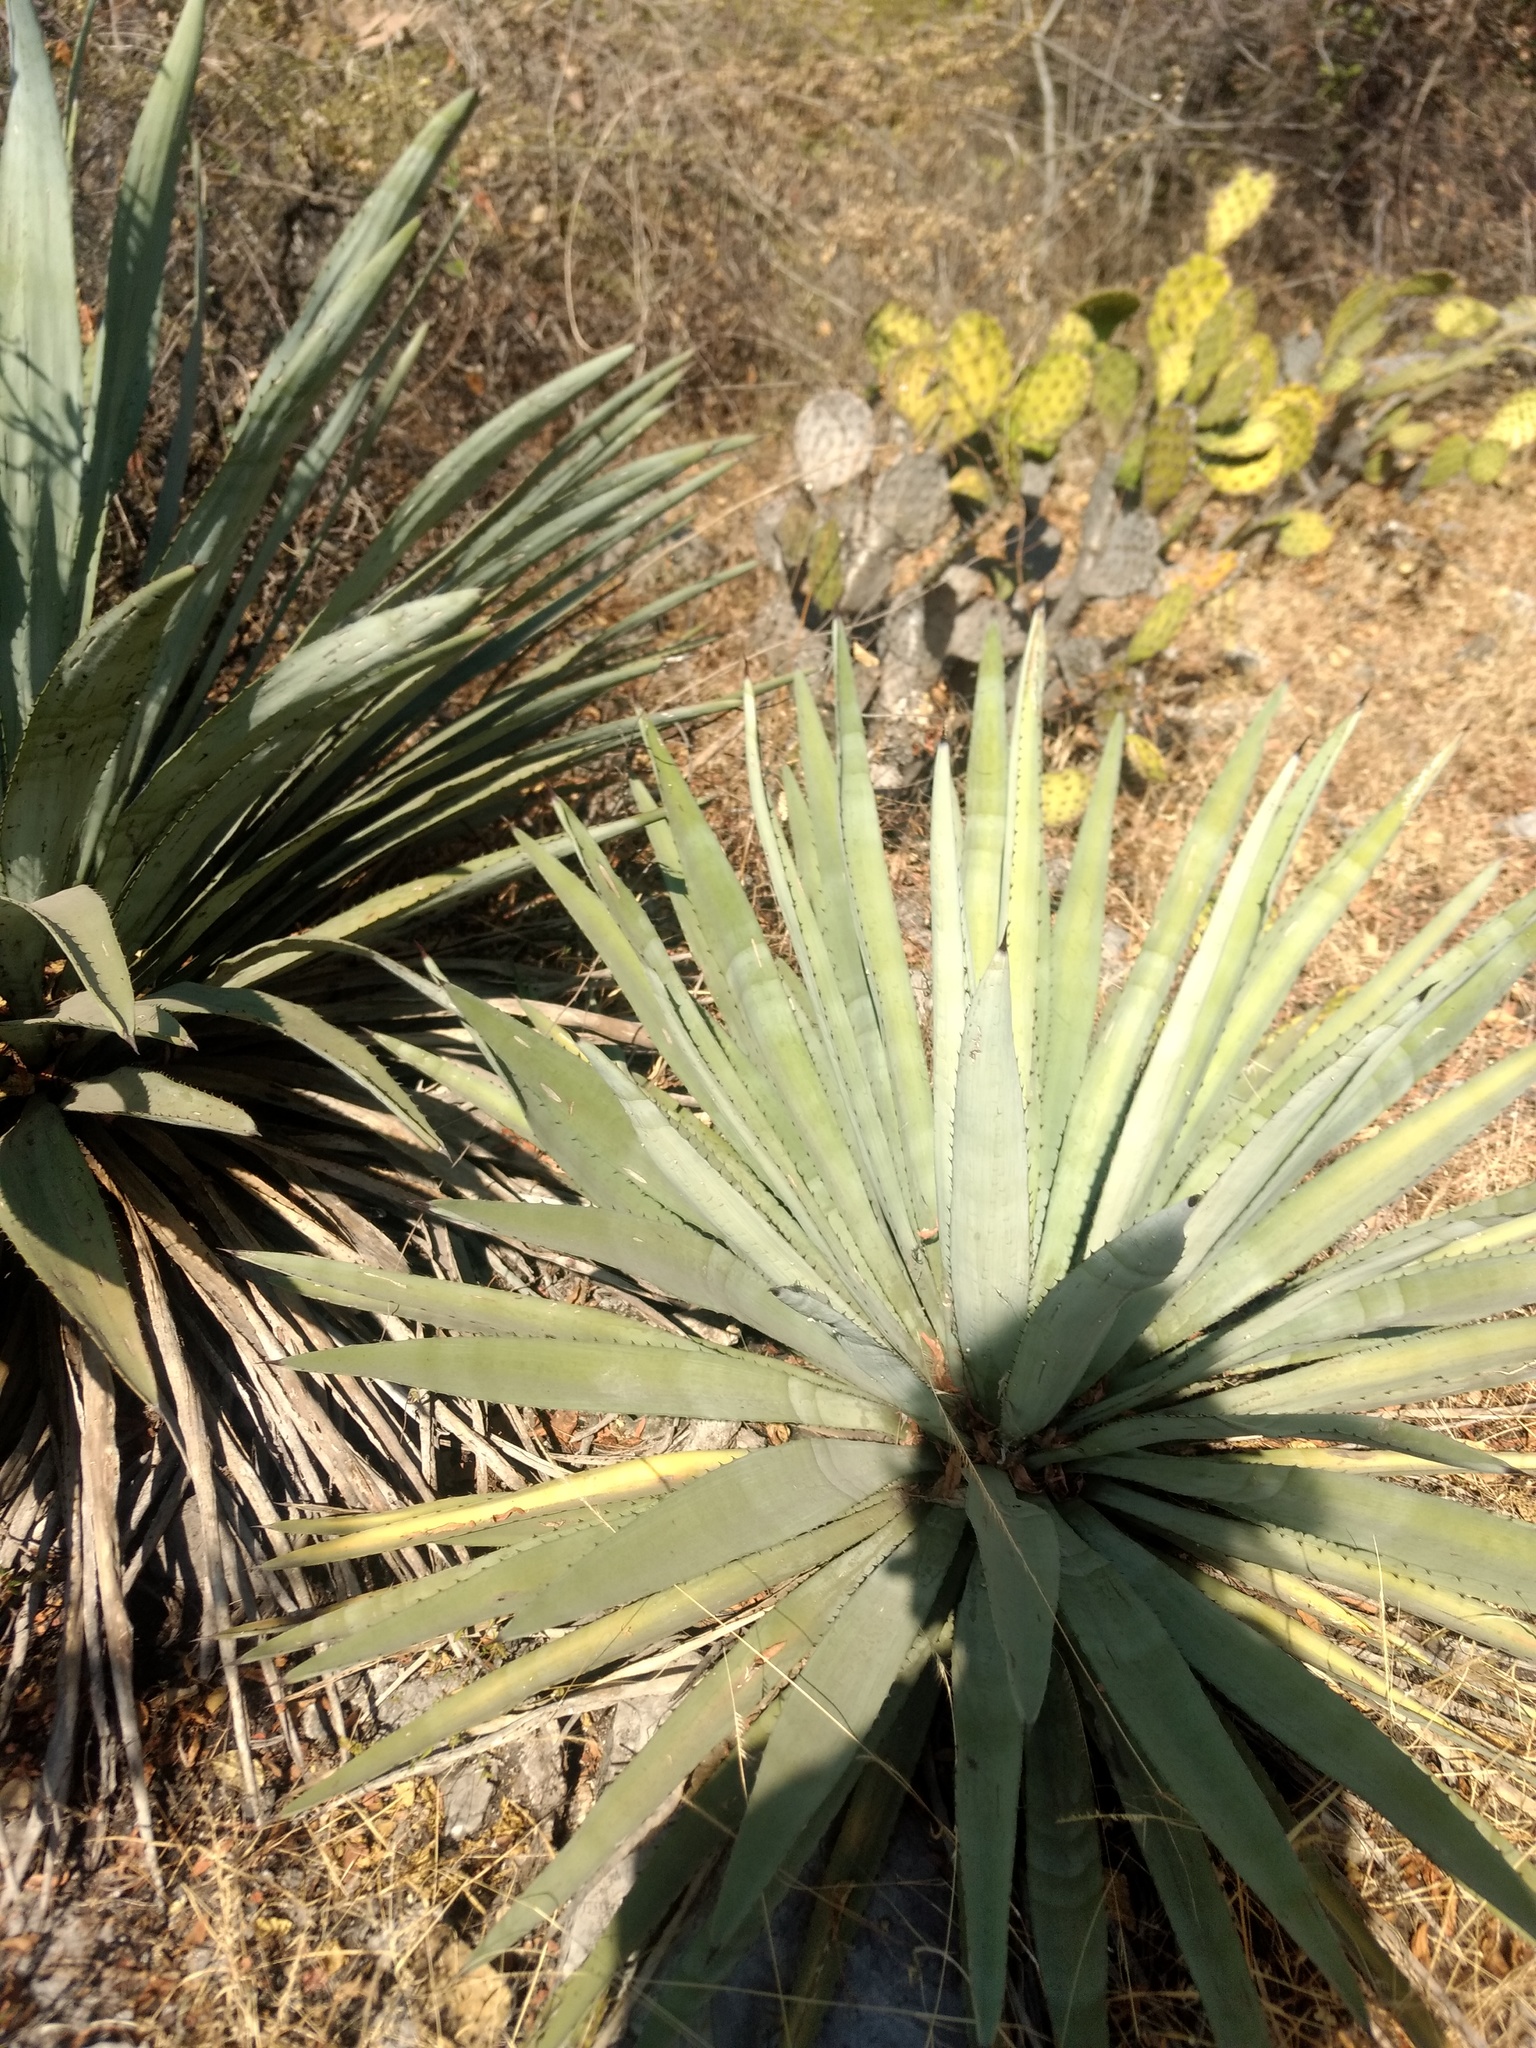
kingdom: Plantae
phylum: Tracheophyta
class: Liliopsida
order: Asparagales
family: Asparagaceae
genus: Agave
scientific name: Agave collina
